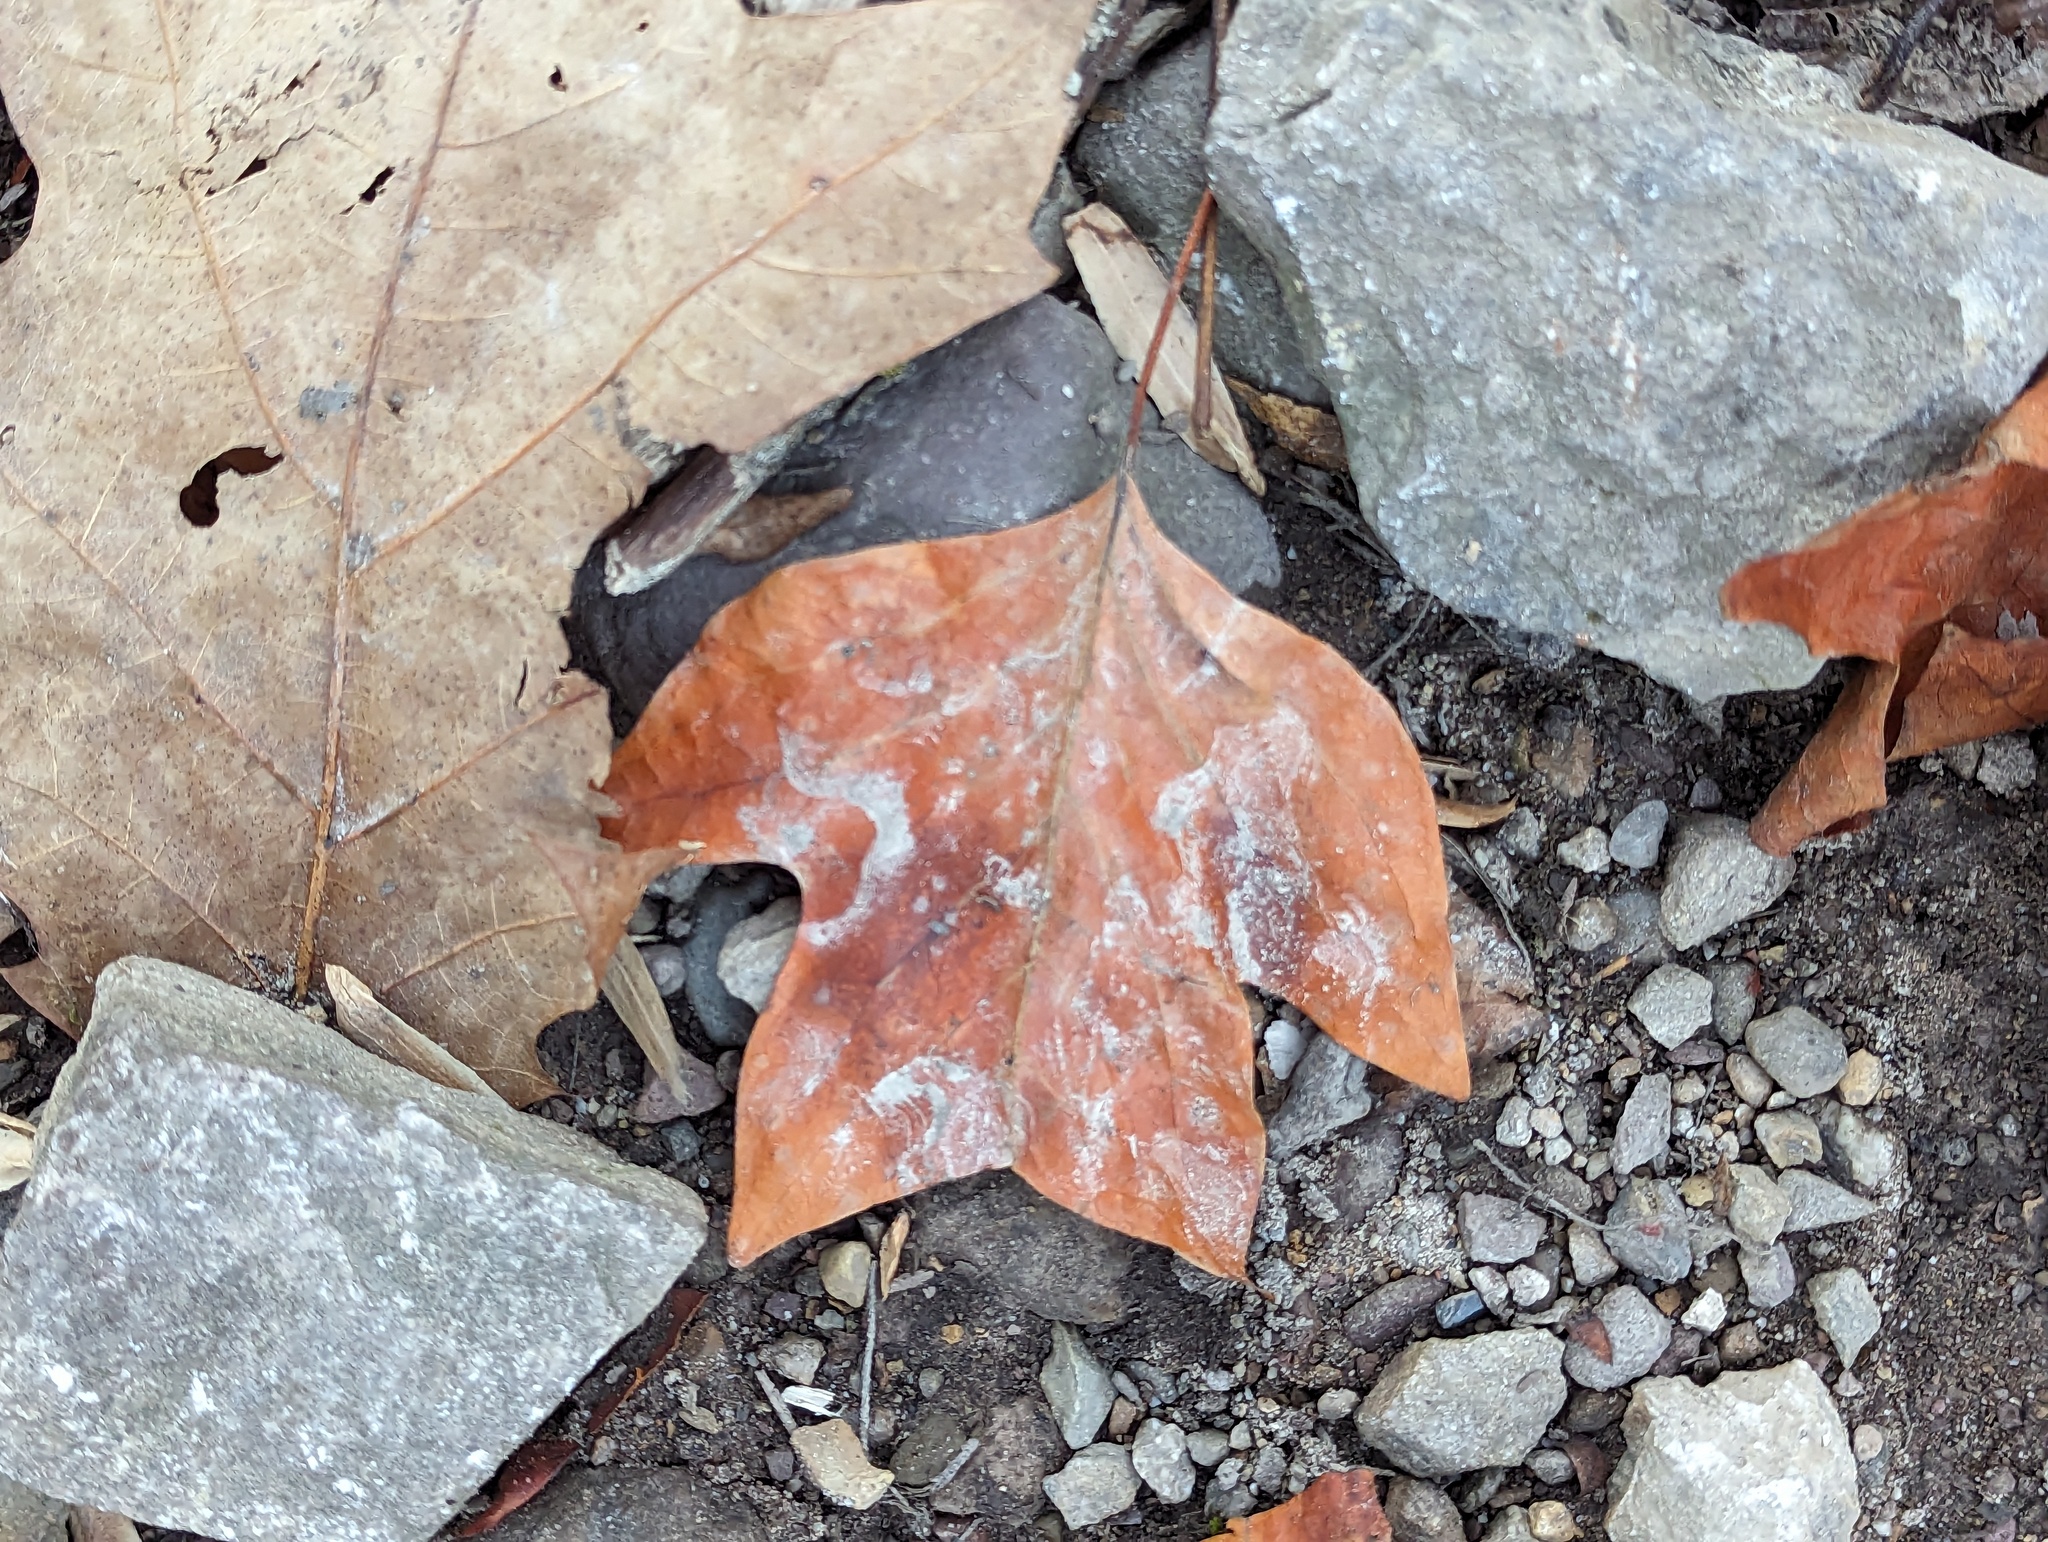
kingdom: Plantae
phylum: Tracheophyta
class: Magnoliopsida
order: Magnoliales
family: Magnoliaceae
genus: Liriodendron
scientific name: Liriodendron tulipifera
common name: Tulip tree
